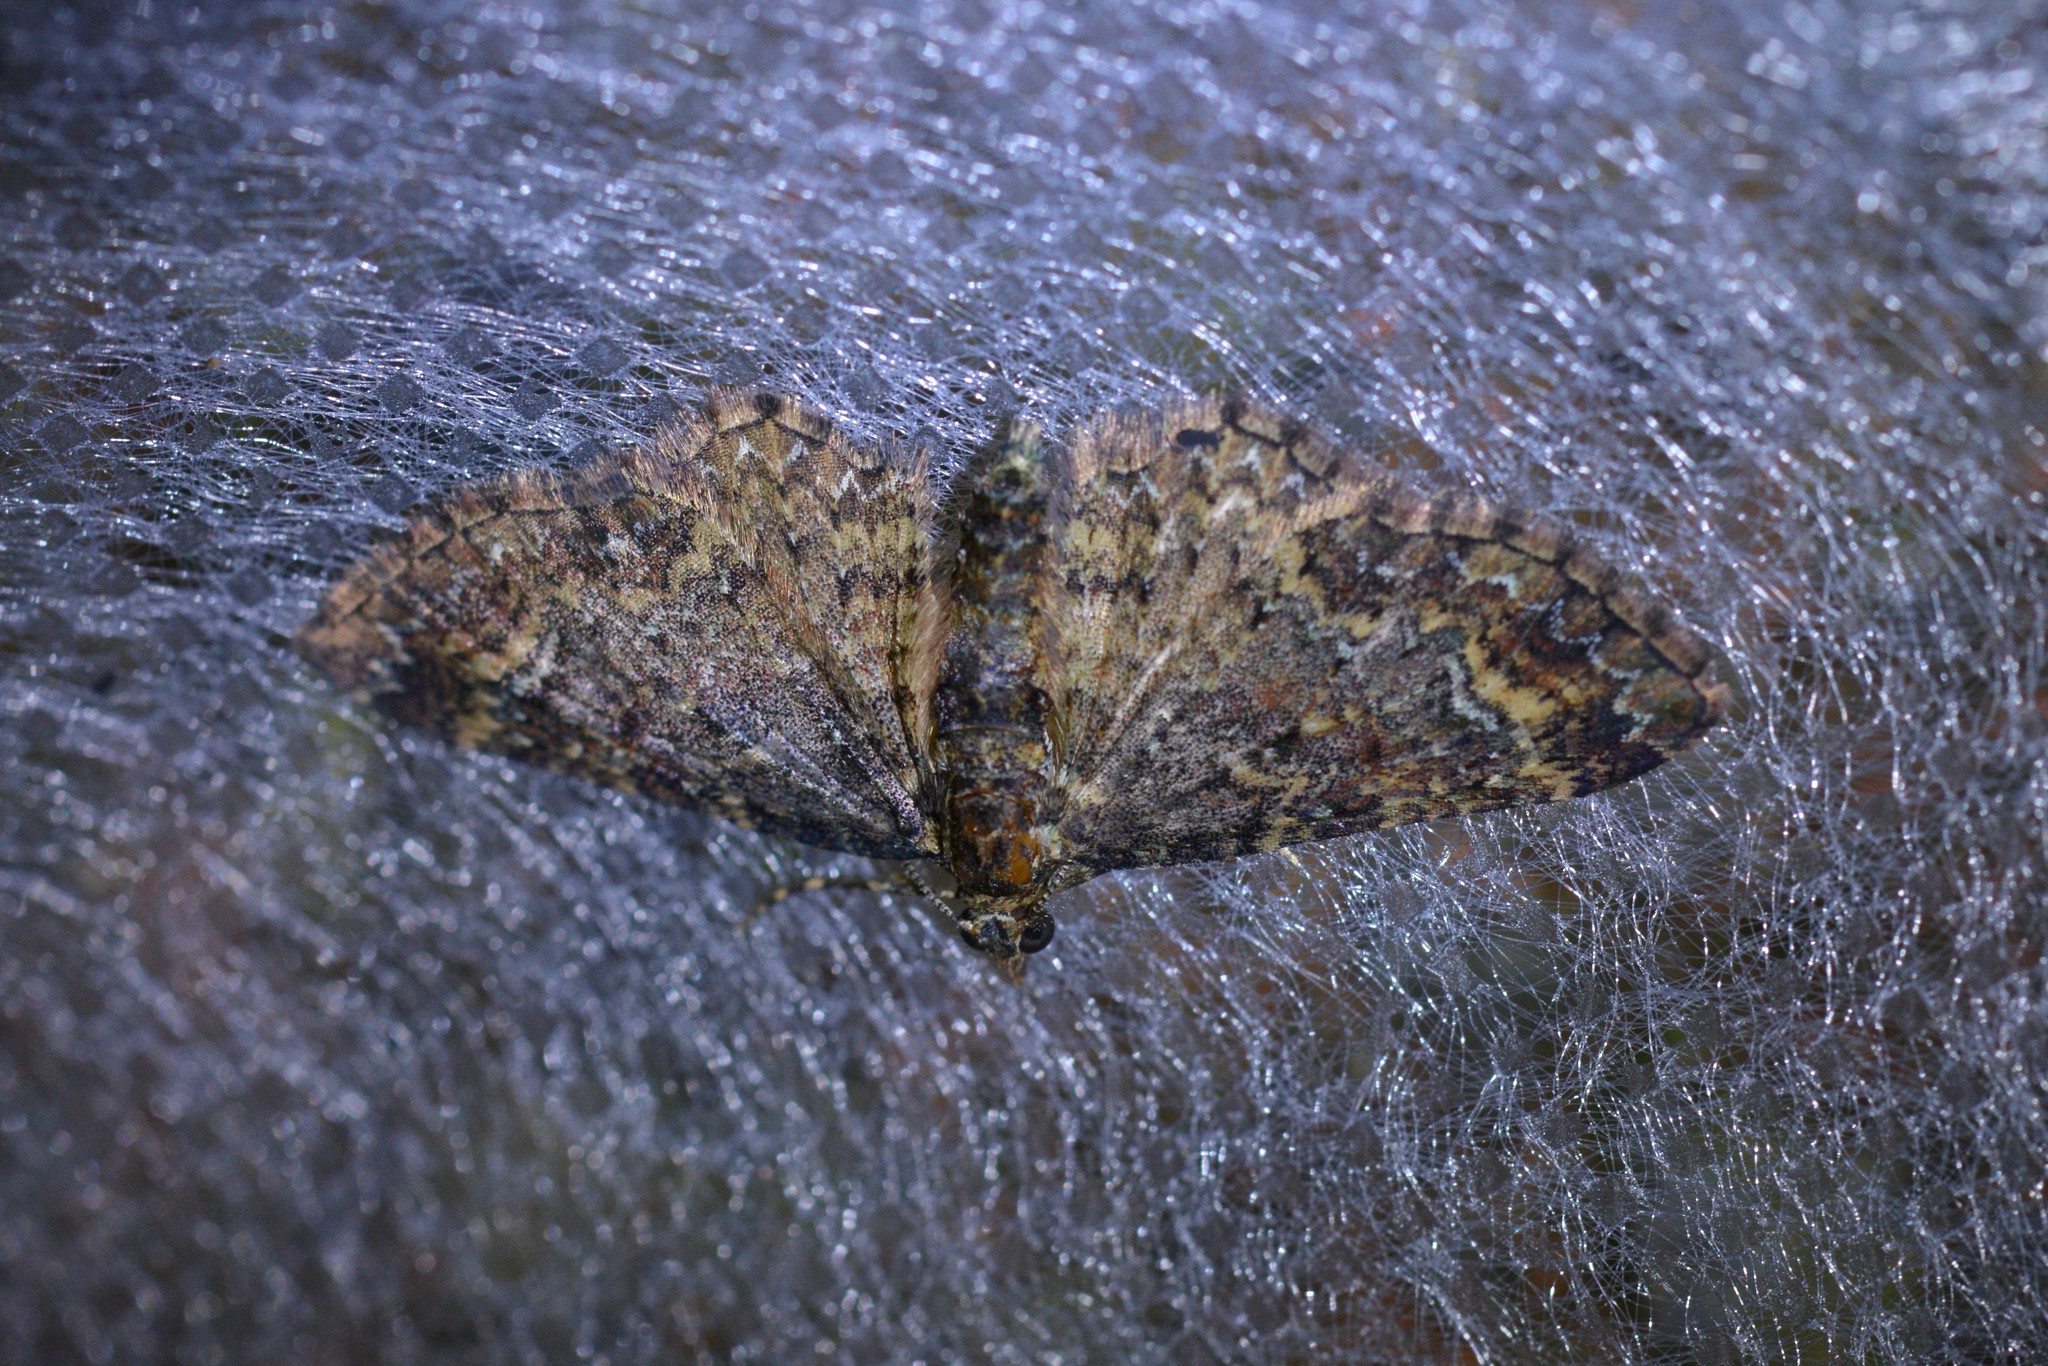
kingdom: Animalia
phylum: Arthropoda
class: Insecta
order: Lepidoptera
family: Geometridae
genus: Pasiphila
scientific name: Pasiphila lunata
